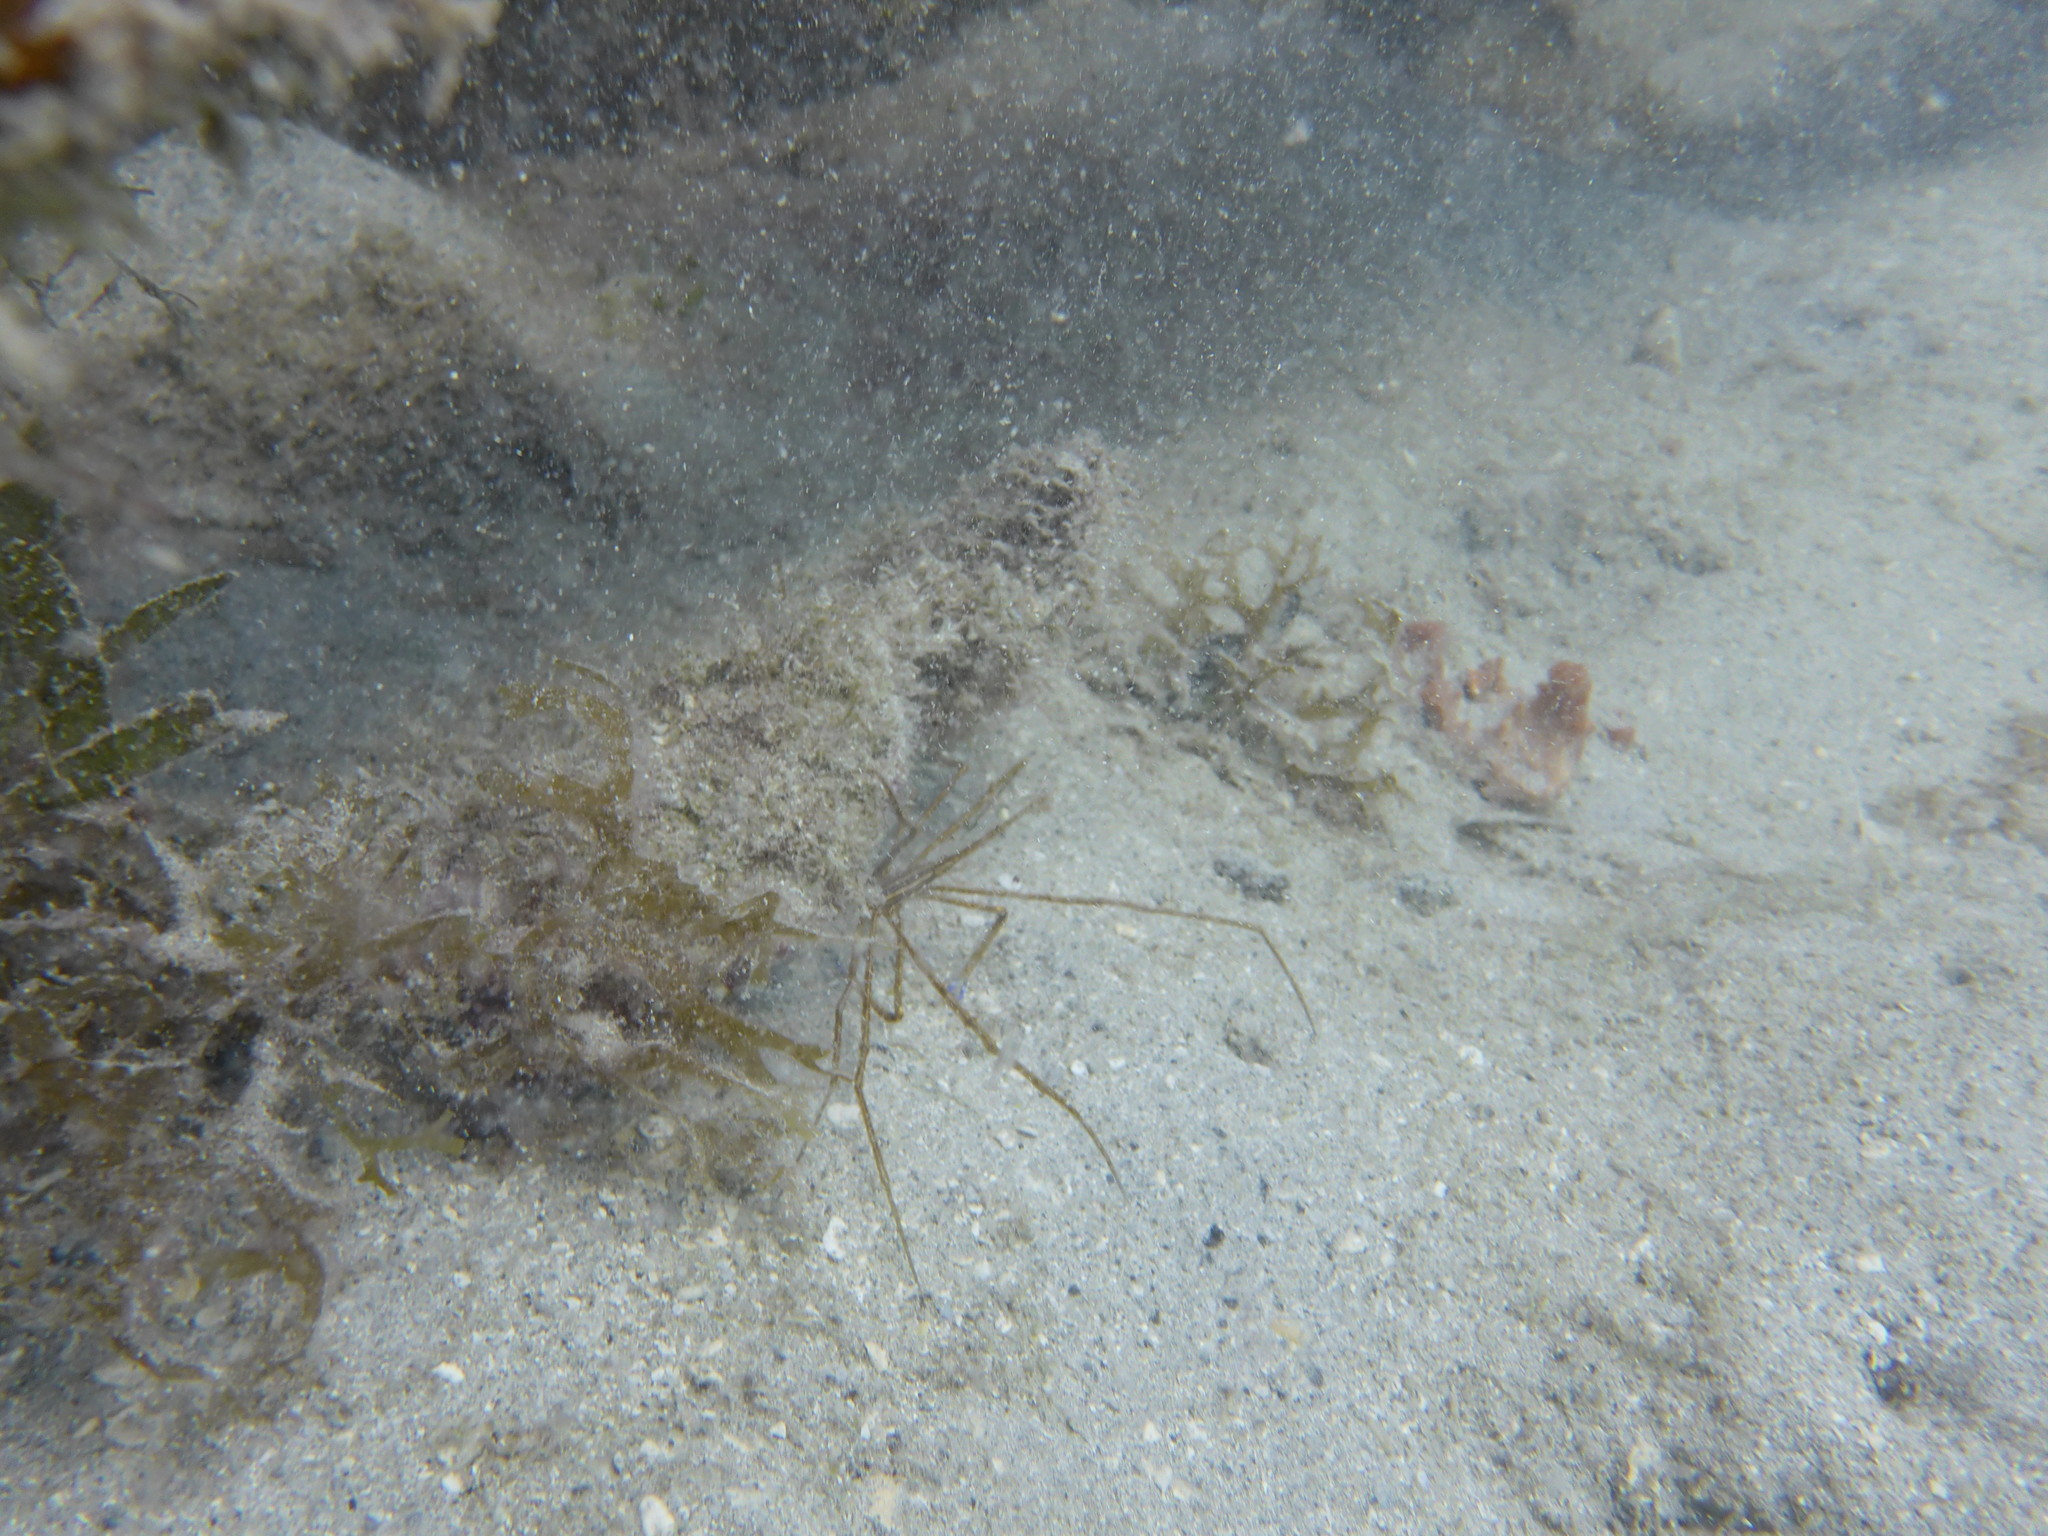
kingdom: Animalia
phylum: Arthropoda
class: Malacostraca
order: Decapoda
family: Inachoididae
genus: Stenorhynchus
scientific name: Stenorhynchus seticornis
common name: Arrow crab
